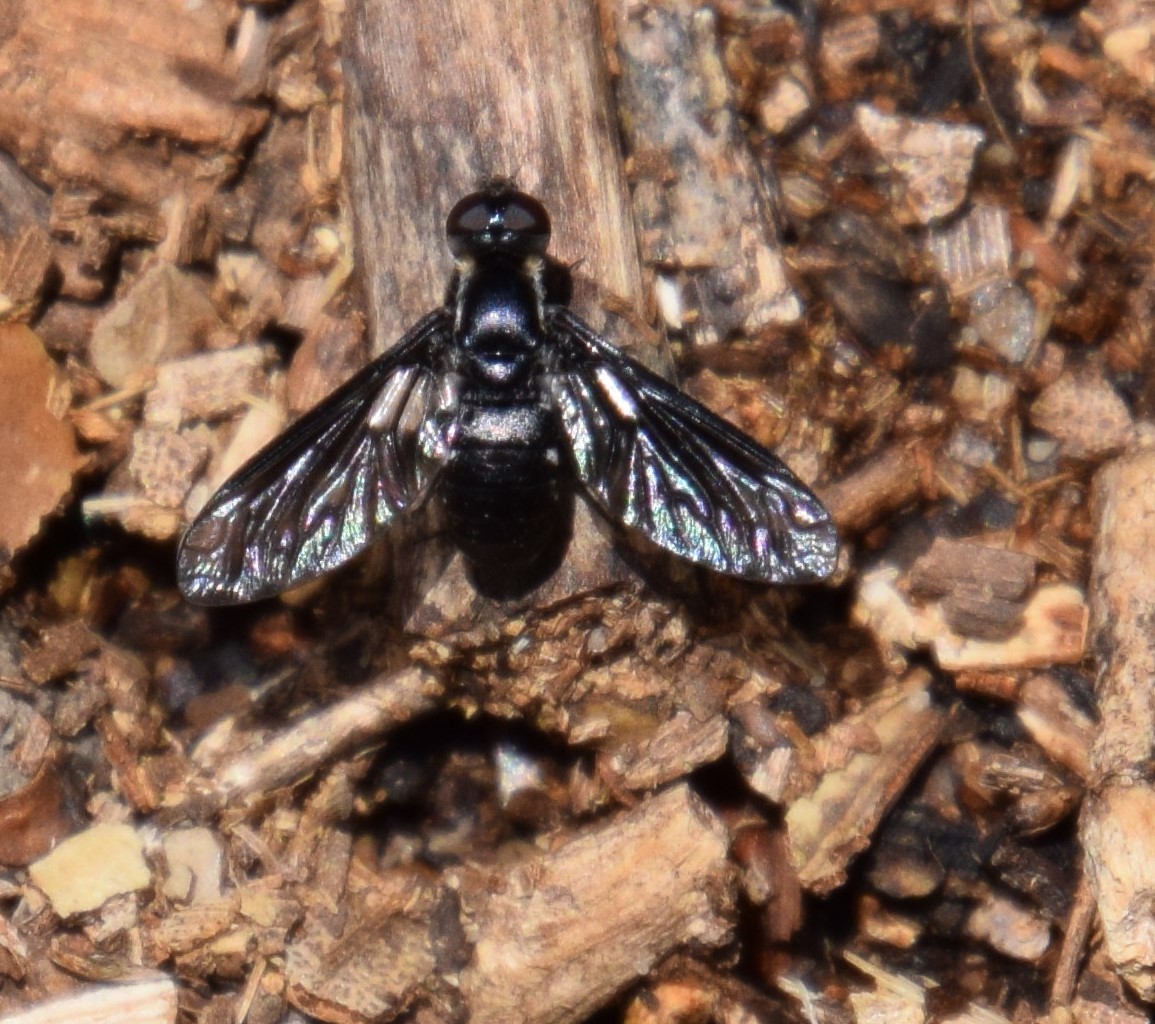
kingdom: Animalia
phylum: Arthropoda
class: Insecta
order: Diptera
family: Bombyliidae
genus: Pseudopenthes
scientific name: Pseudopenthes fenestrata
